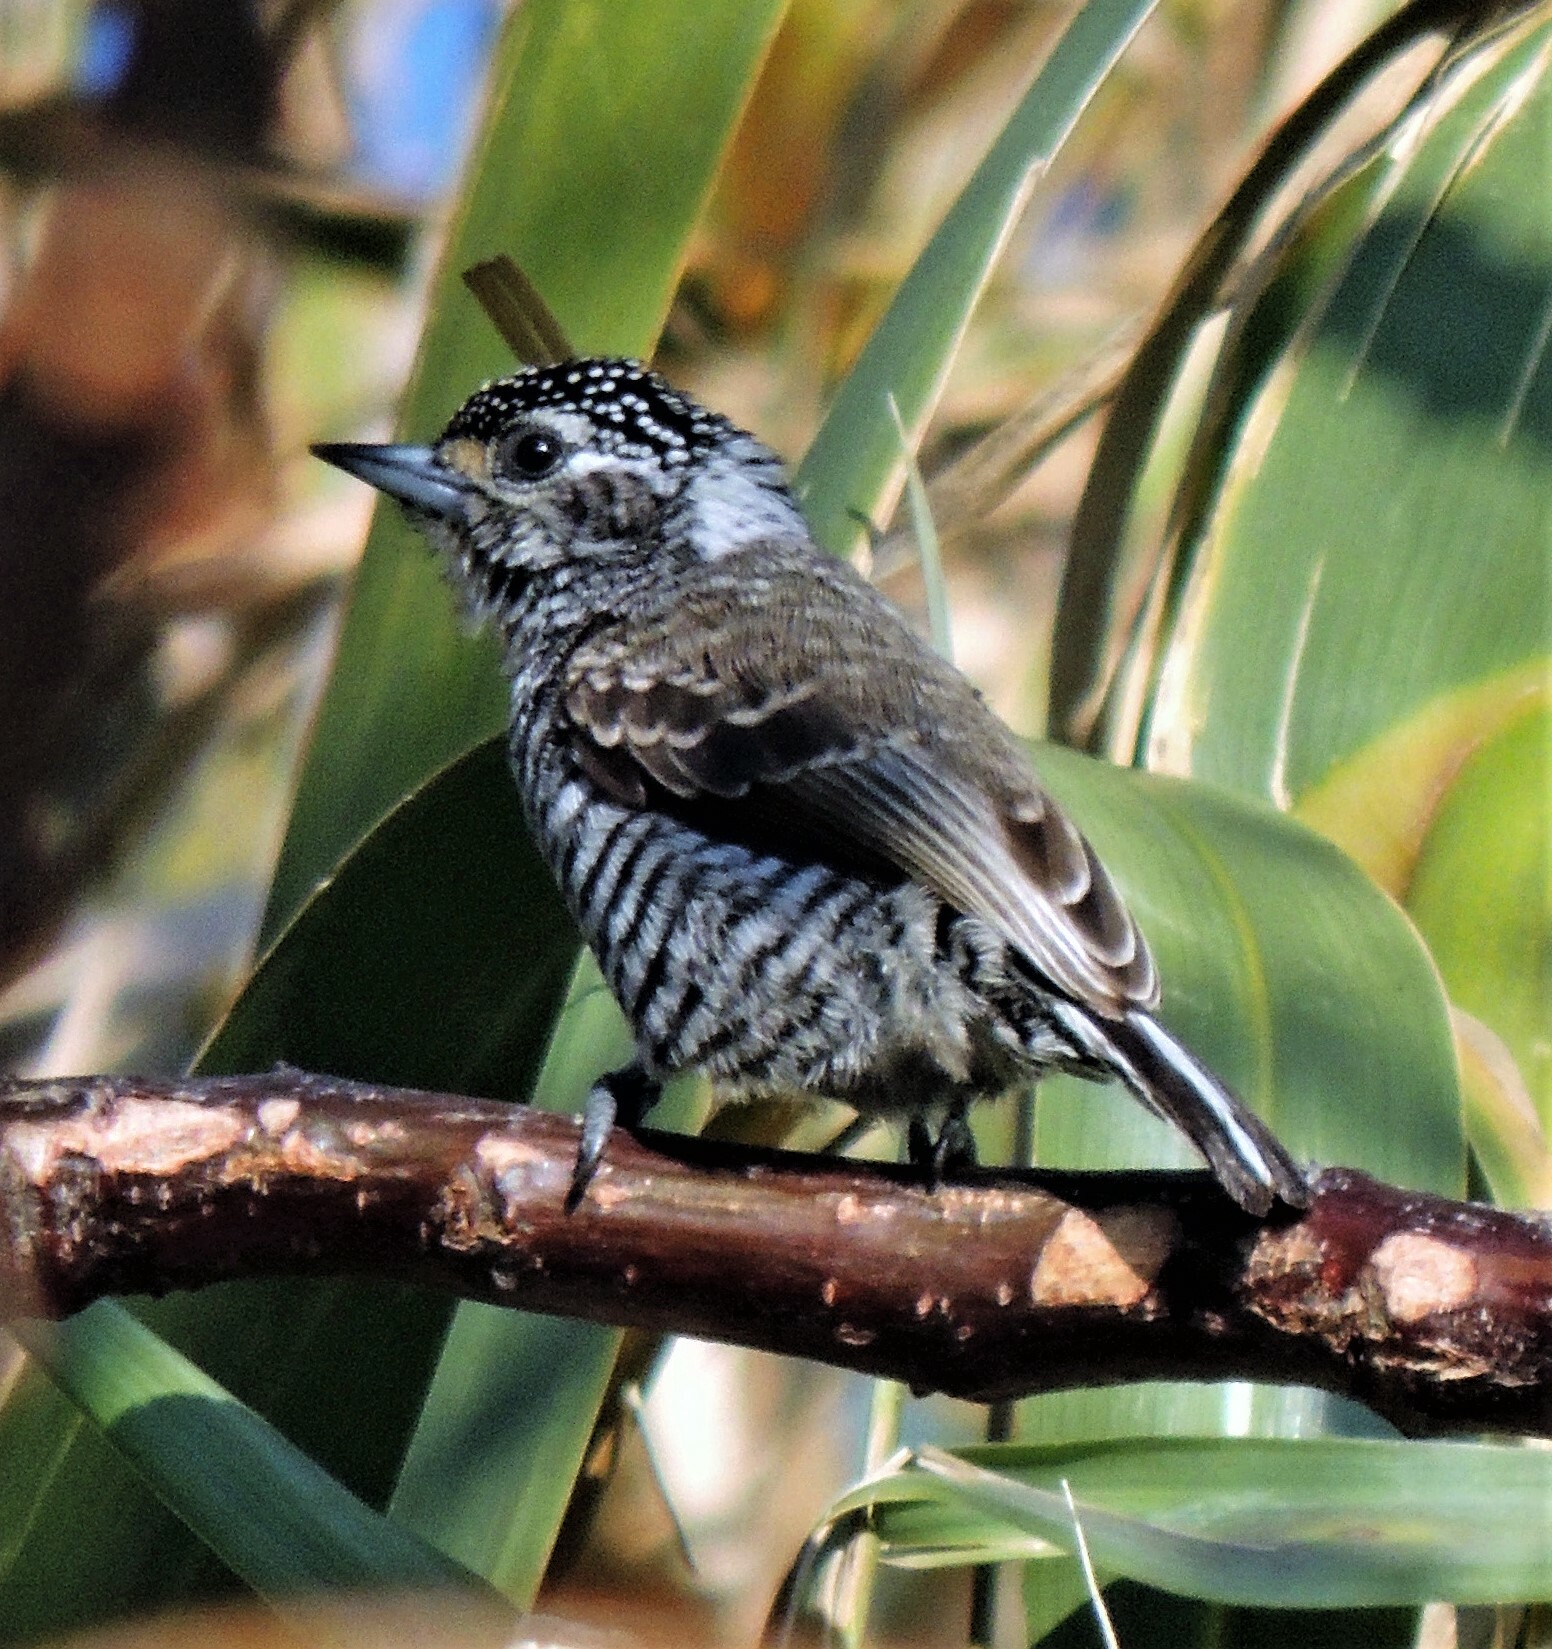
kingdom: Animalia
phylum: Chordata
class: Aves
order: Piciformes
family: Picidae
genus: Picumnus
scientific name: Picumnus cirratus
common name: White-barred piculet
